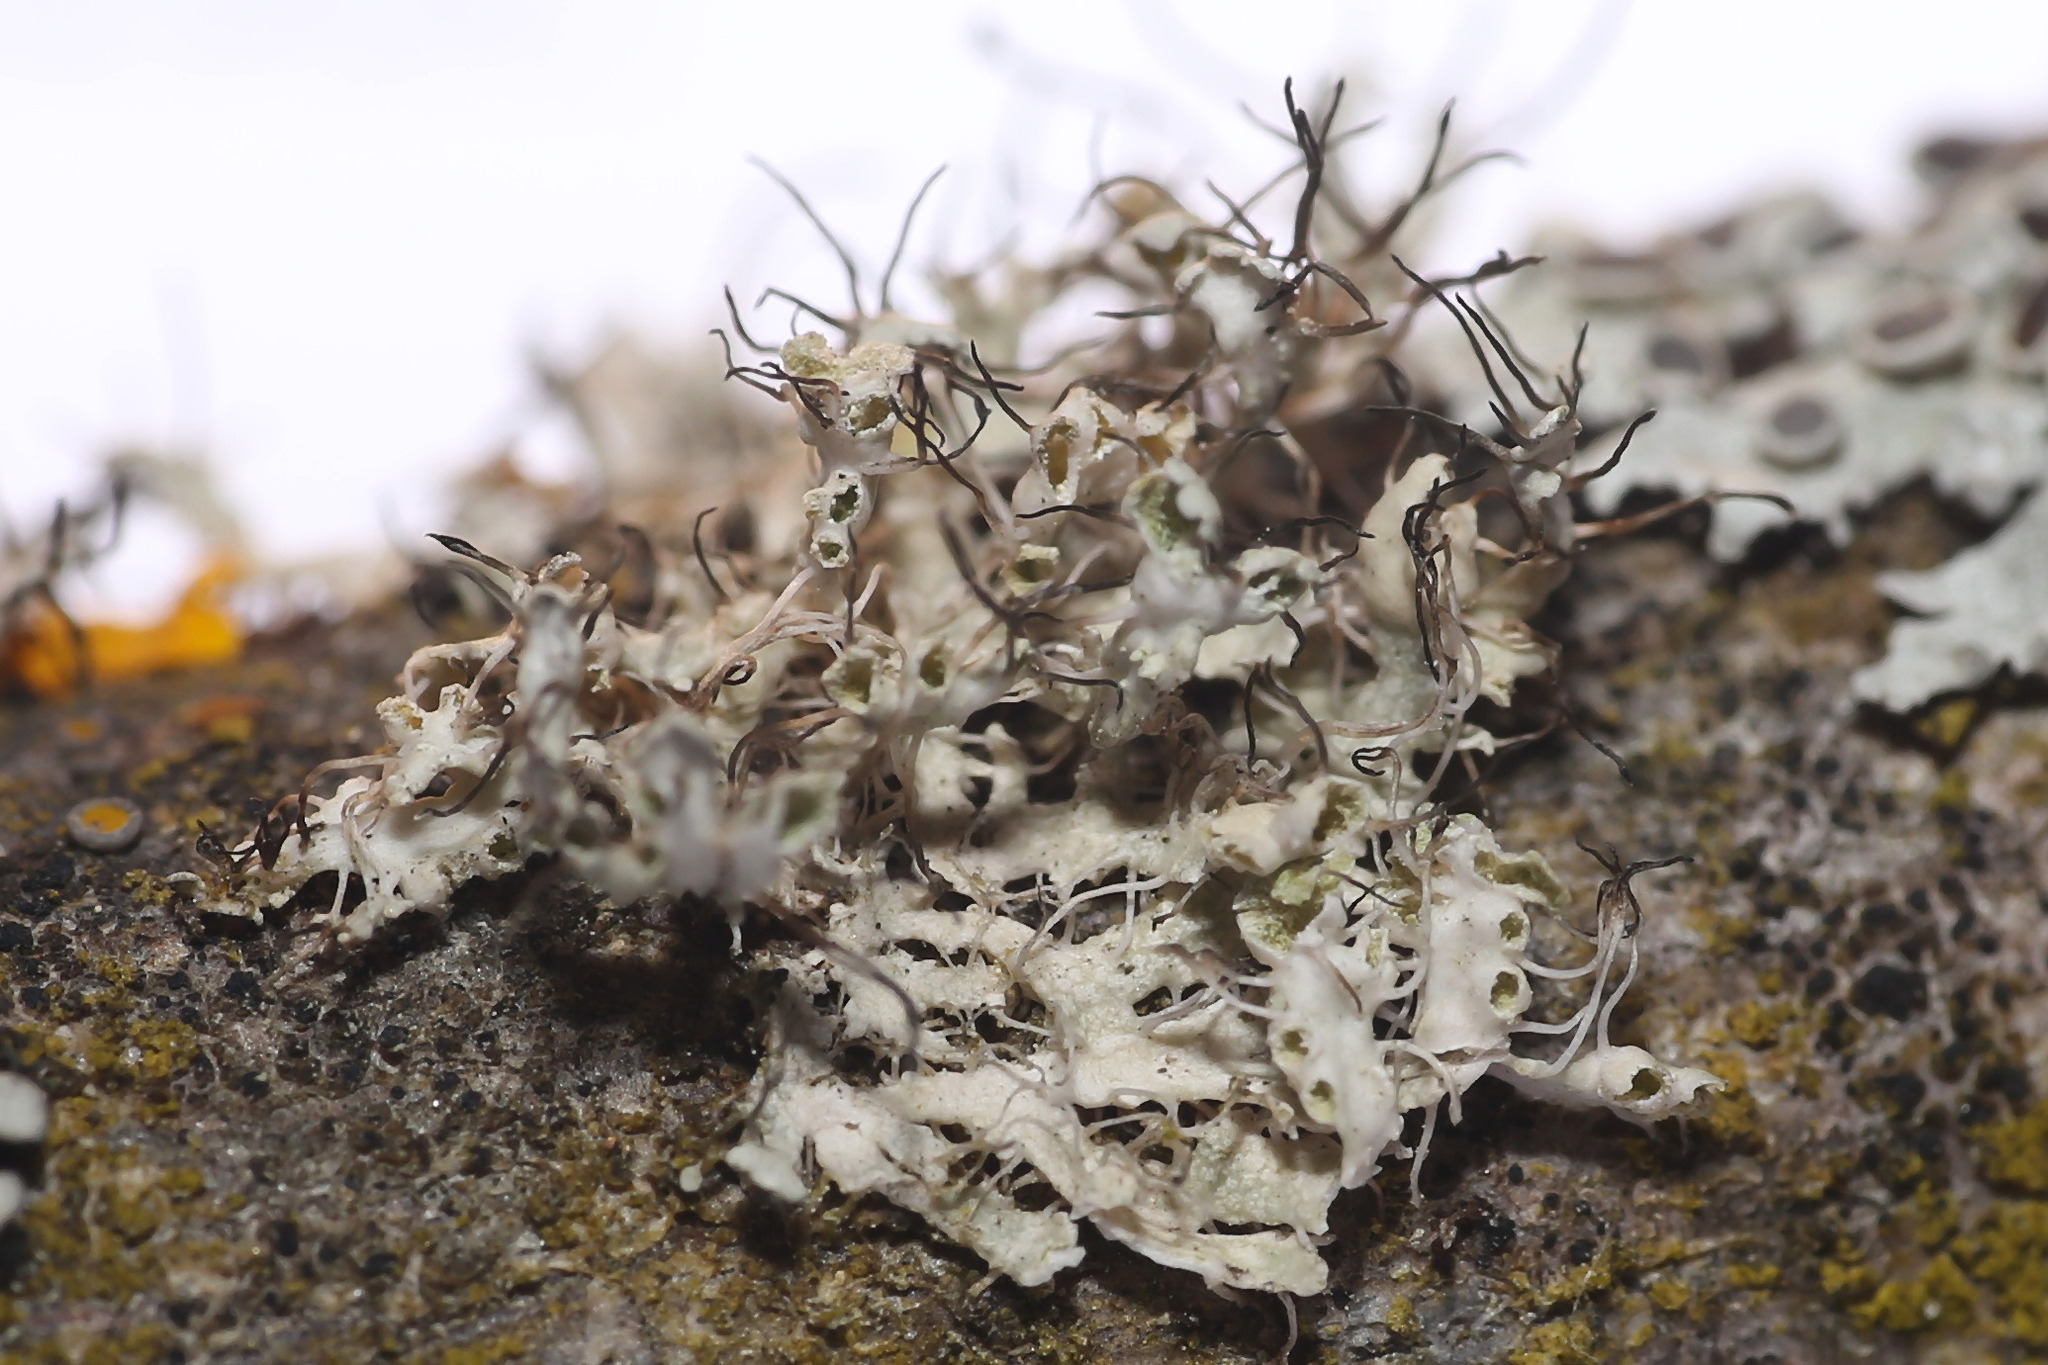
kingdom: Fungi
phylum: Ascomycota
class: Lecanoromycetes
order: Caliciales
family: Physciaceae
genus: Physcia
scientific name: Physcia adscendens
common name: Hooded rosette lichen
